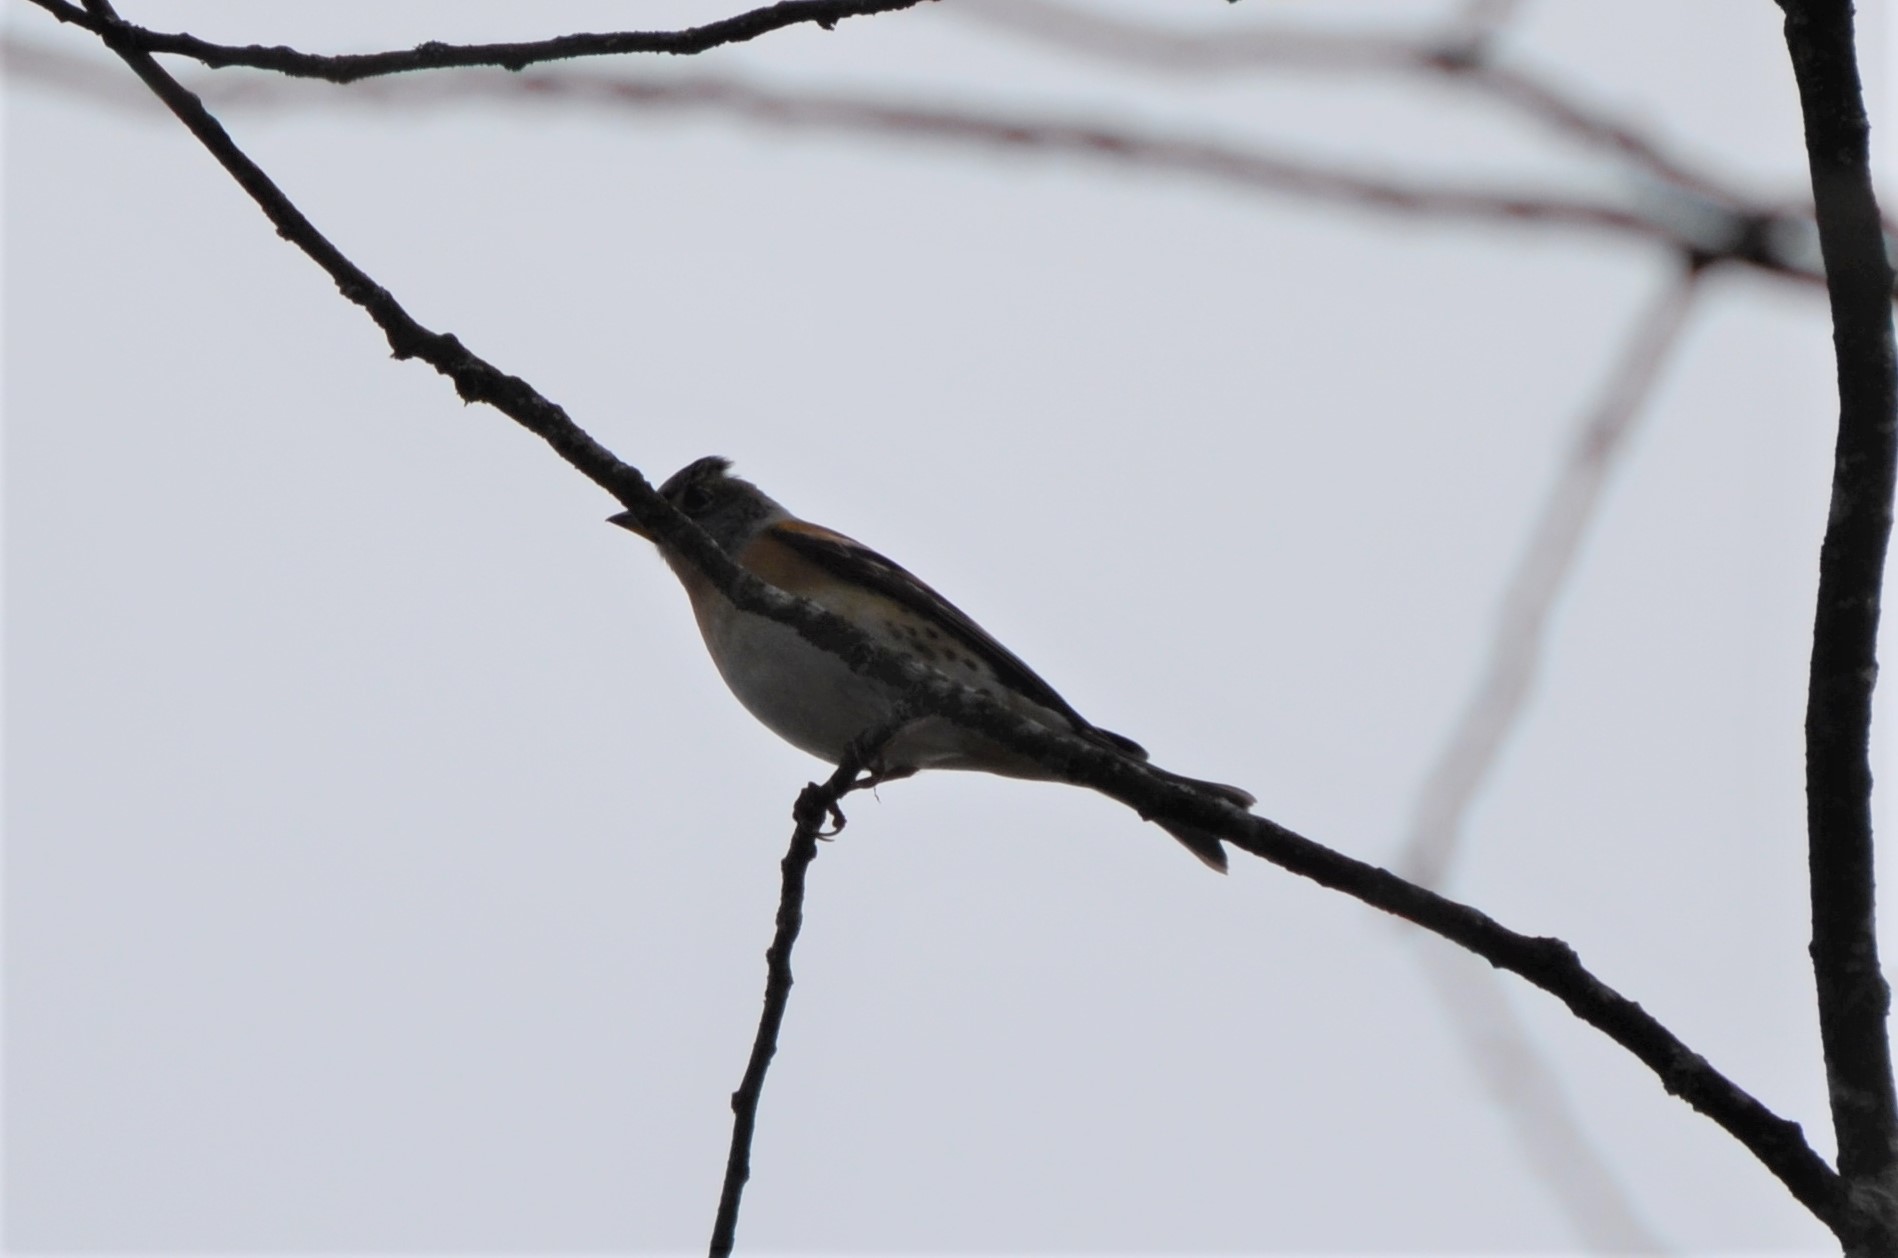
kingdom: Animalia
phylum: Chordata
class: Aves
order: Passeriformes
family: Fringillidae
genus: Fringilla
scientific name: Fringilla montifringilla
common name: Brambling
